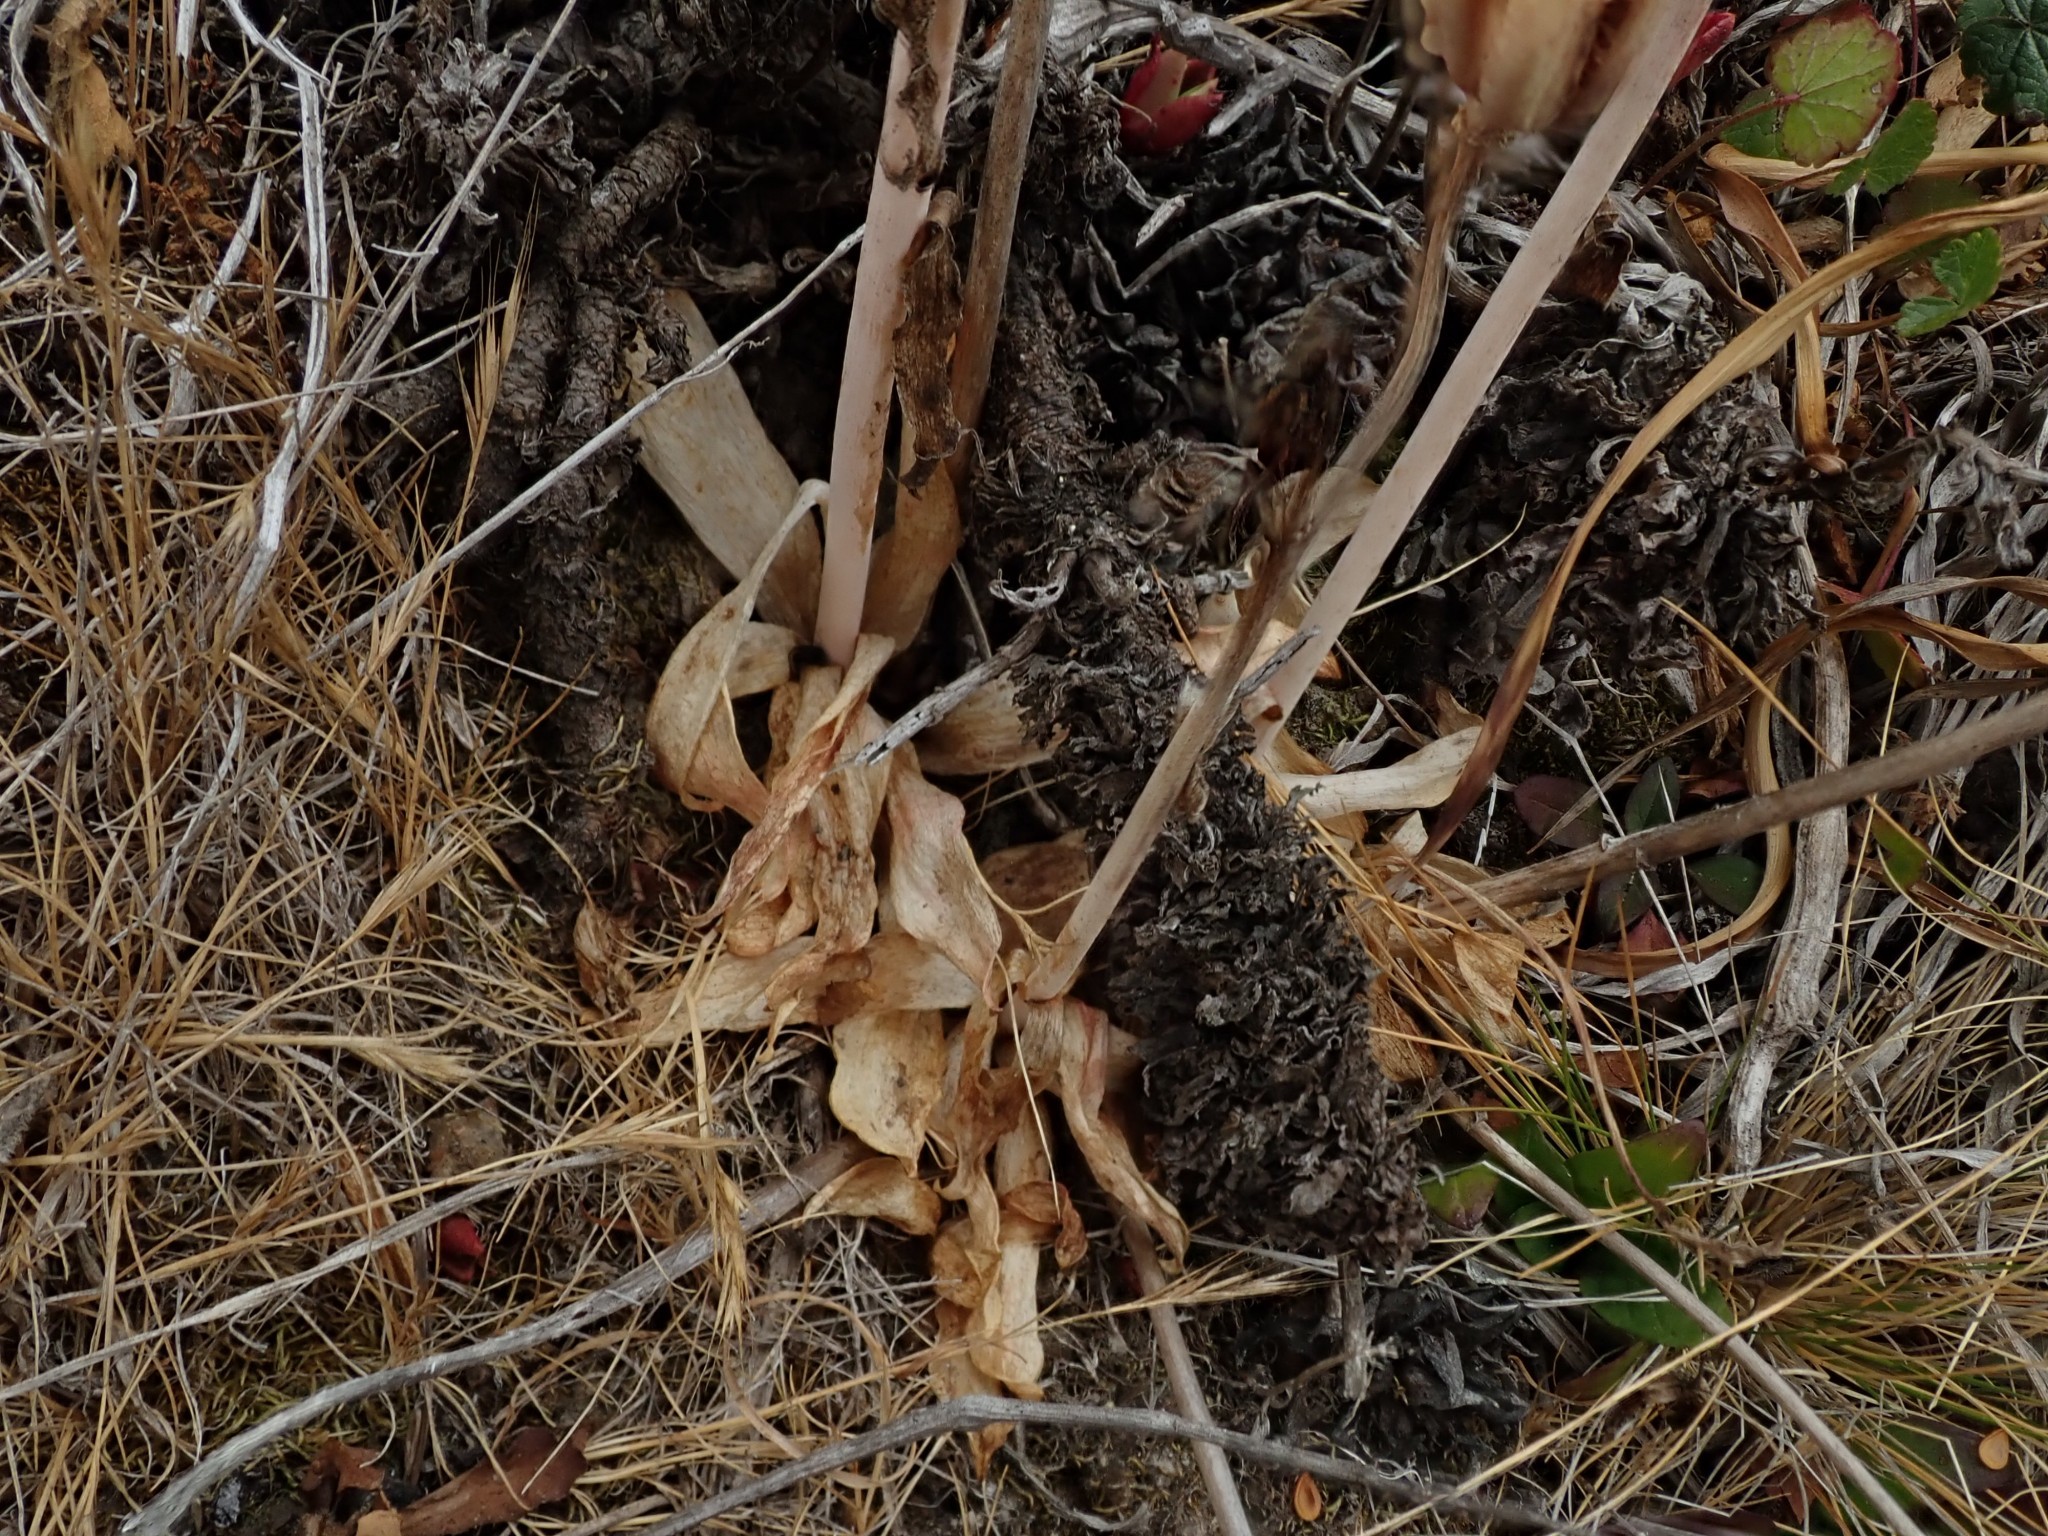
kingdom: Plantae
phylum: Tracheophyta
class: Liliopsida
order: Liliales
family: Liliaceae
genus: Fritillaria
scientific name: Fritillaria liliacea
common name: Fragrant fritillary
